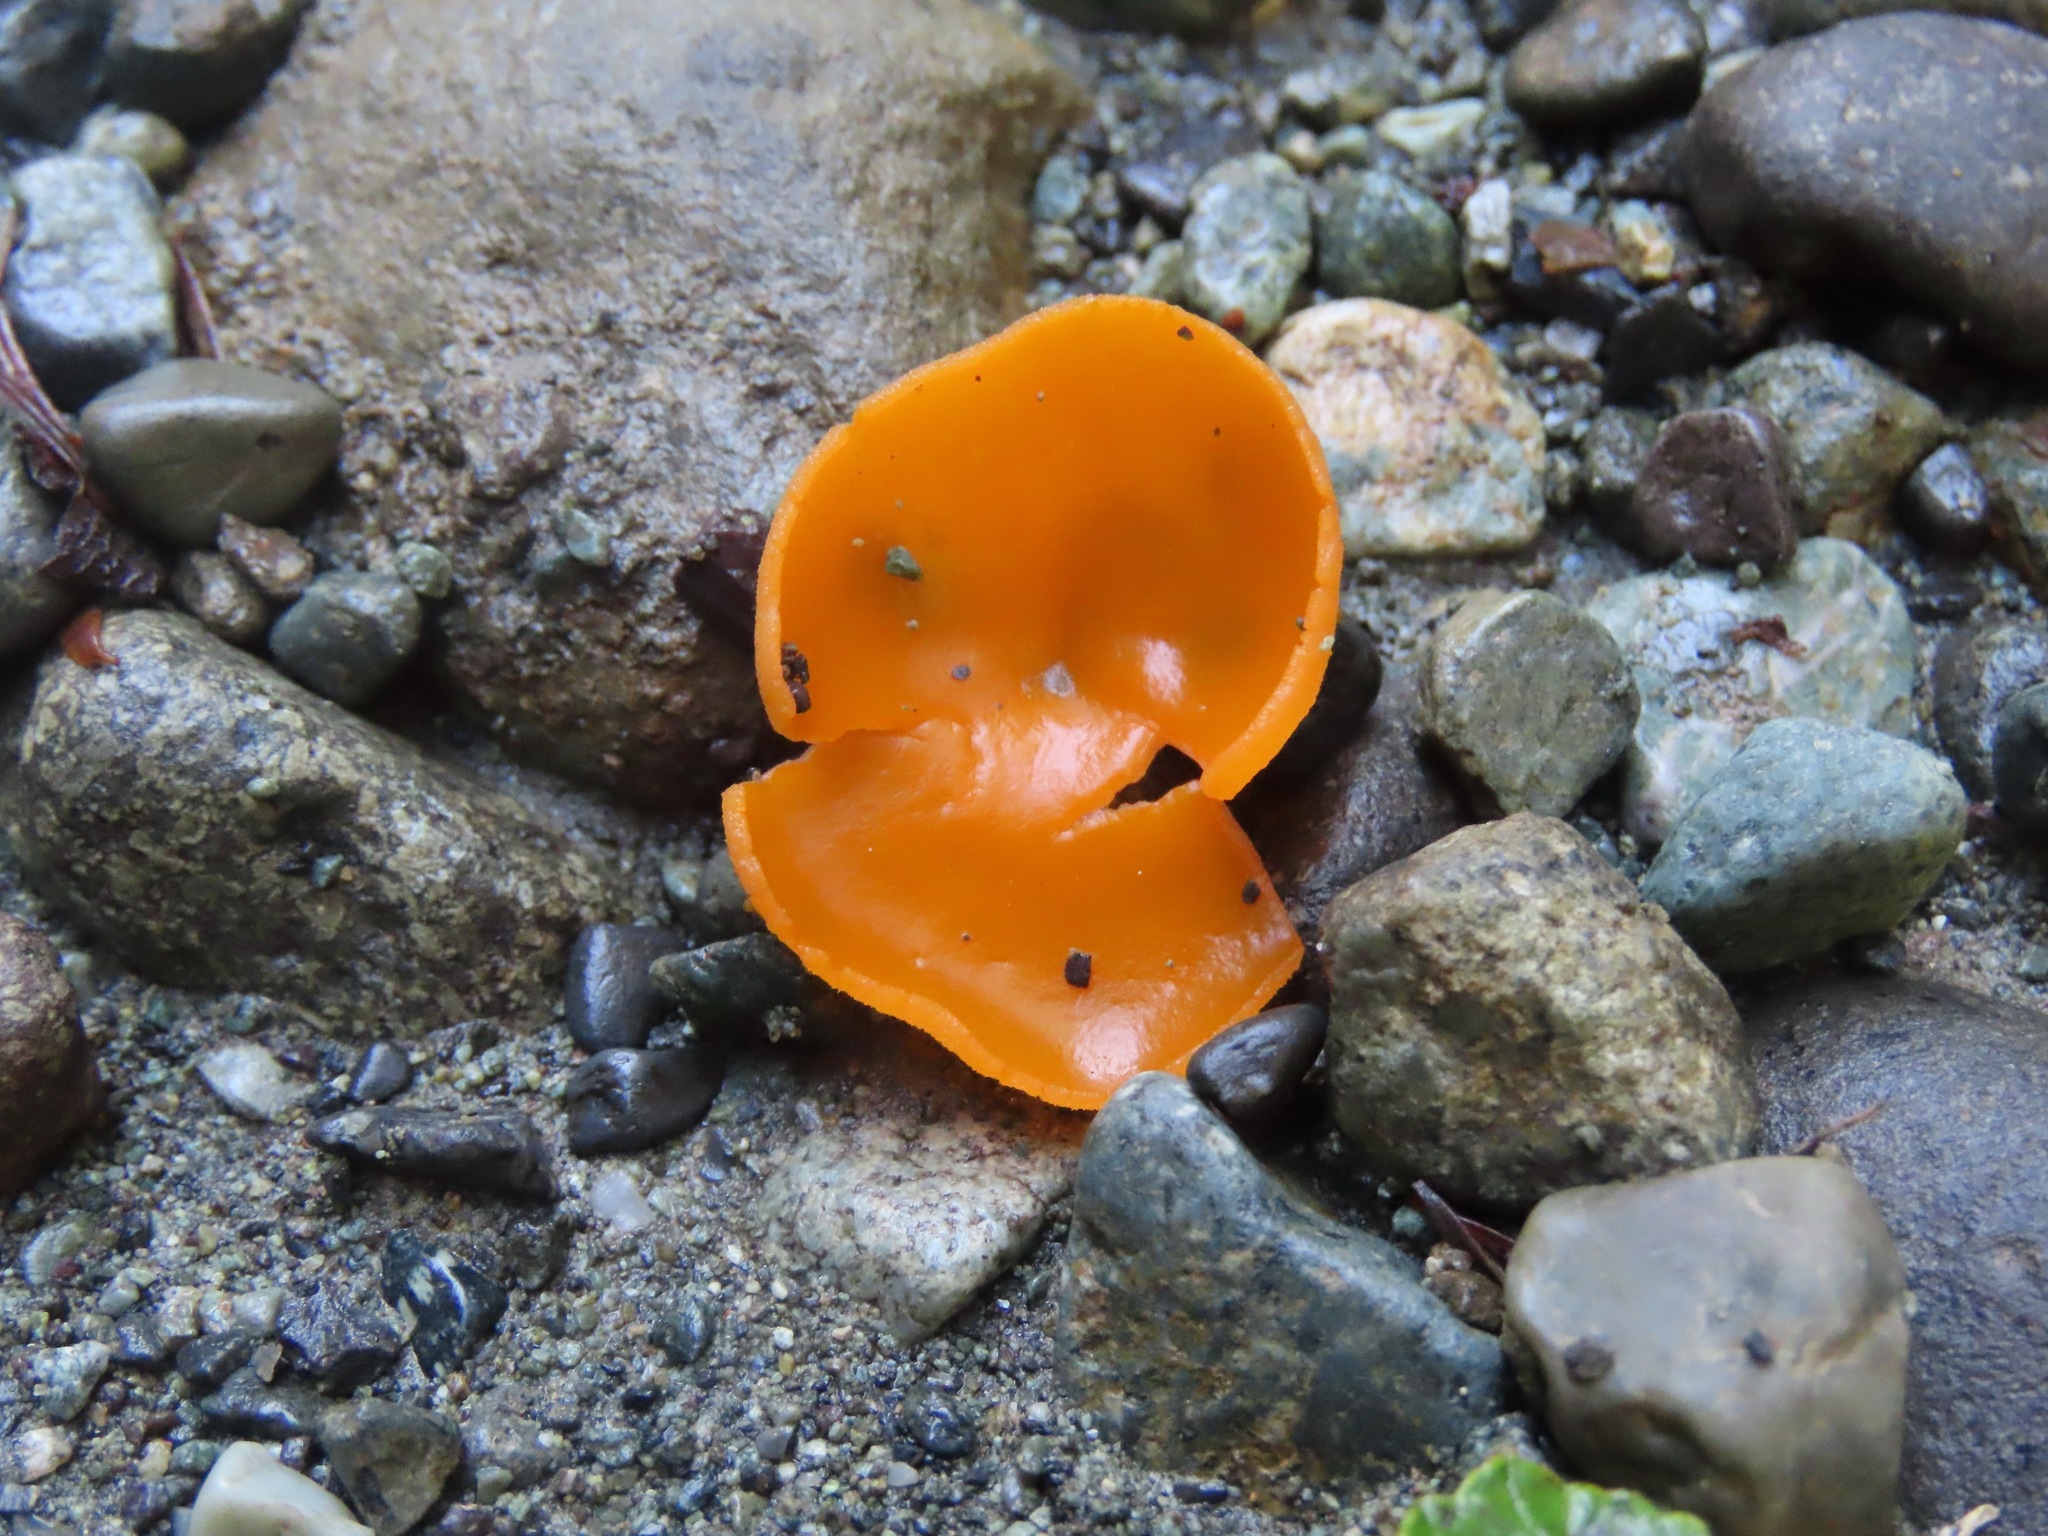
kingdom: Fungi
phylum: Ascomycota
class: Pezizomycetes
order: Pezizales
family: Pyronemataceae
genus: Aleuria
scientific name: Aleuria aurantia
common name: Orange peel fungus
